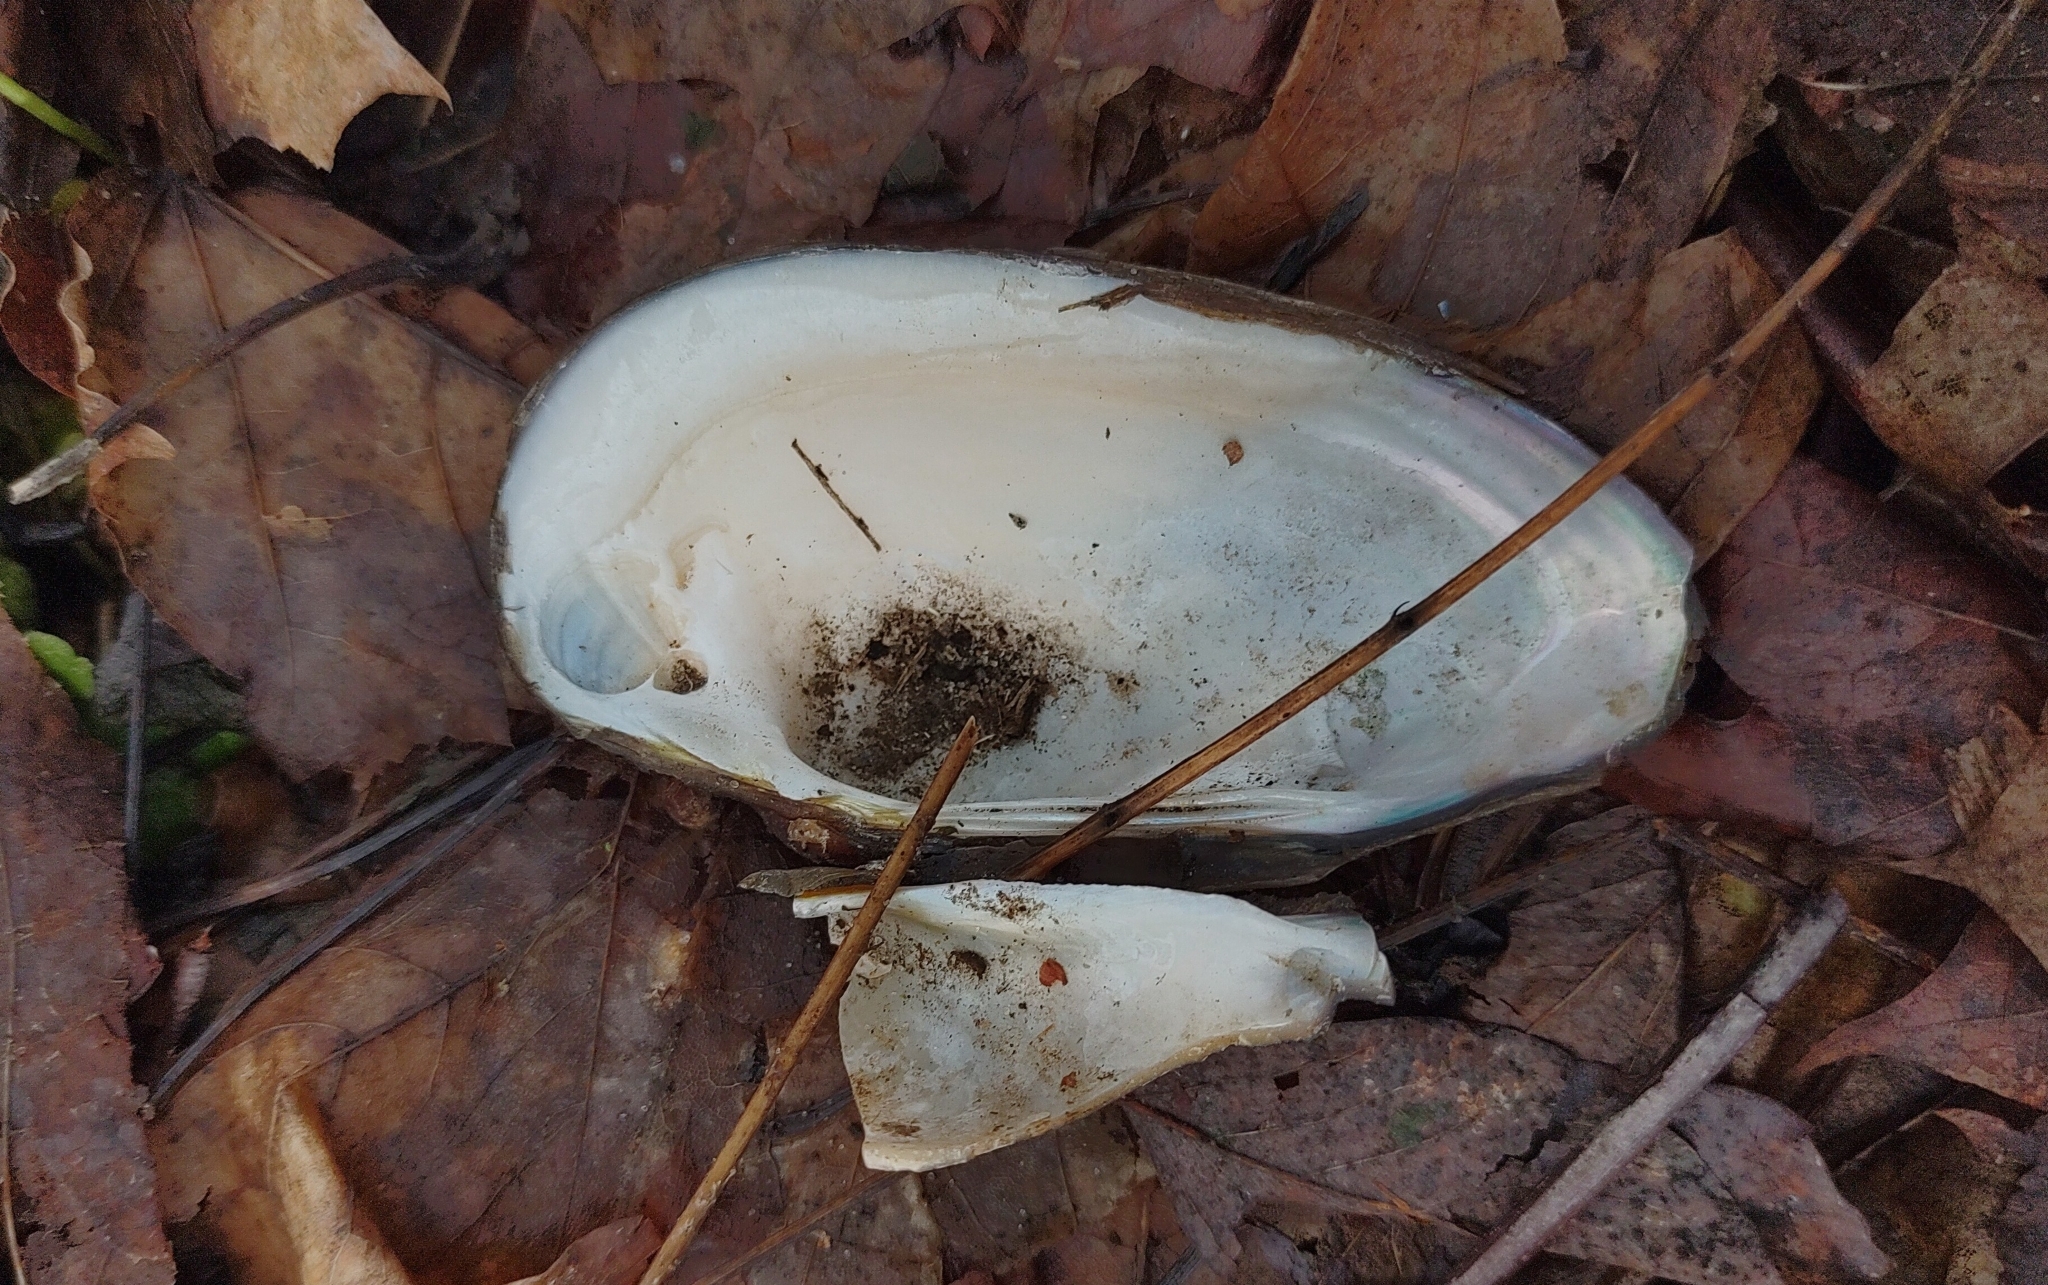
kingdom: Animalia
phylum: Mollusca
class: Bivalvia
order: Unionida
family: Unionidae
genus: Unio
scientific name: Unio tumidus
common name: Swollen river mussel
